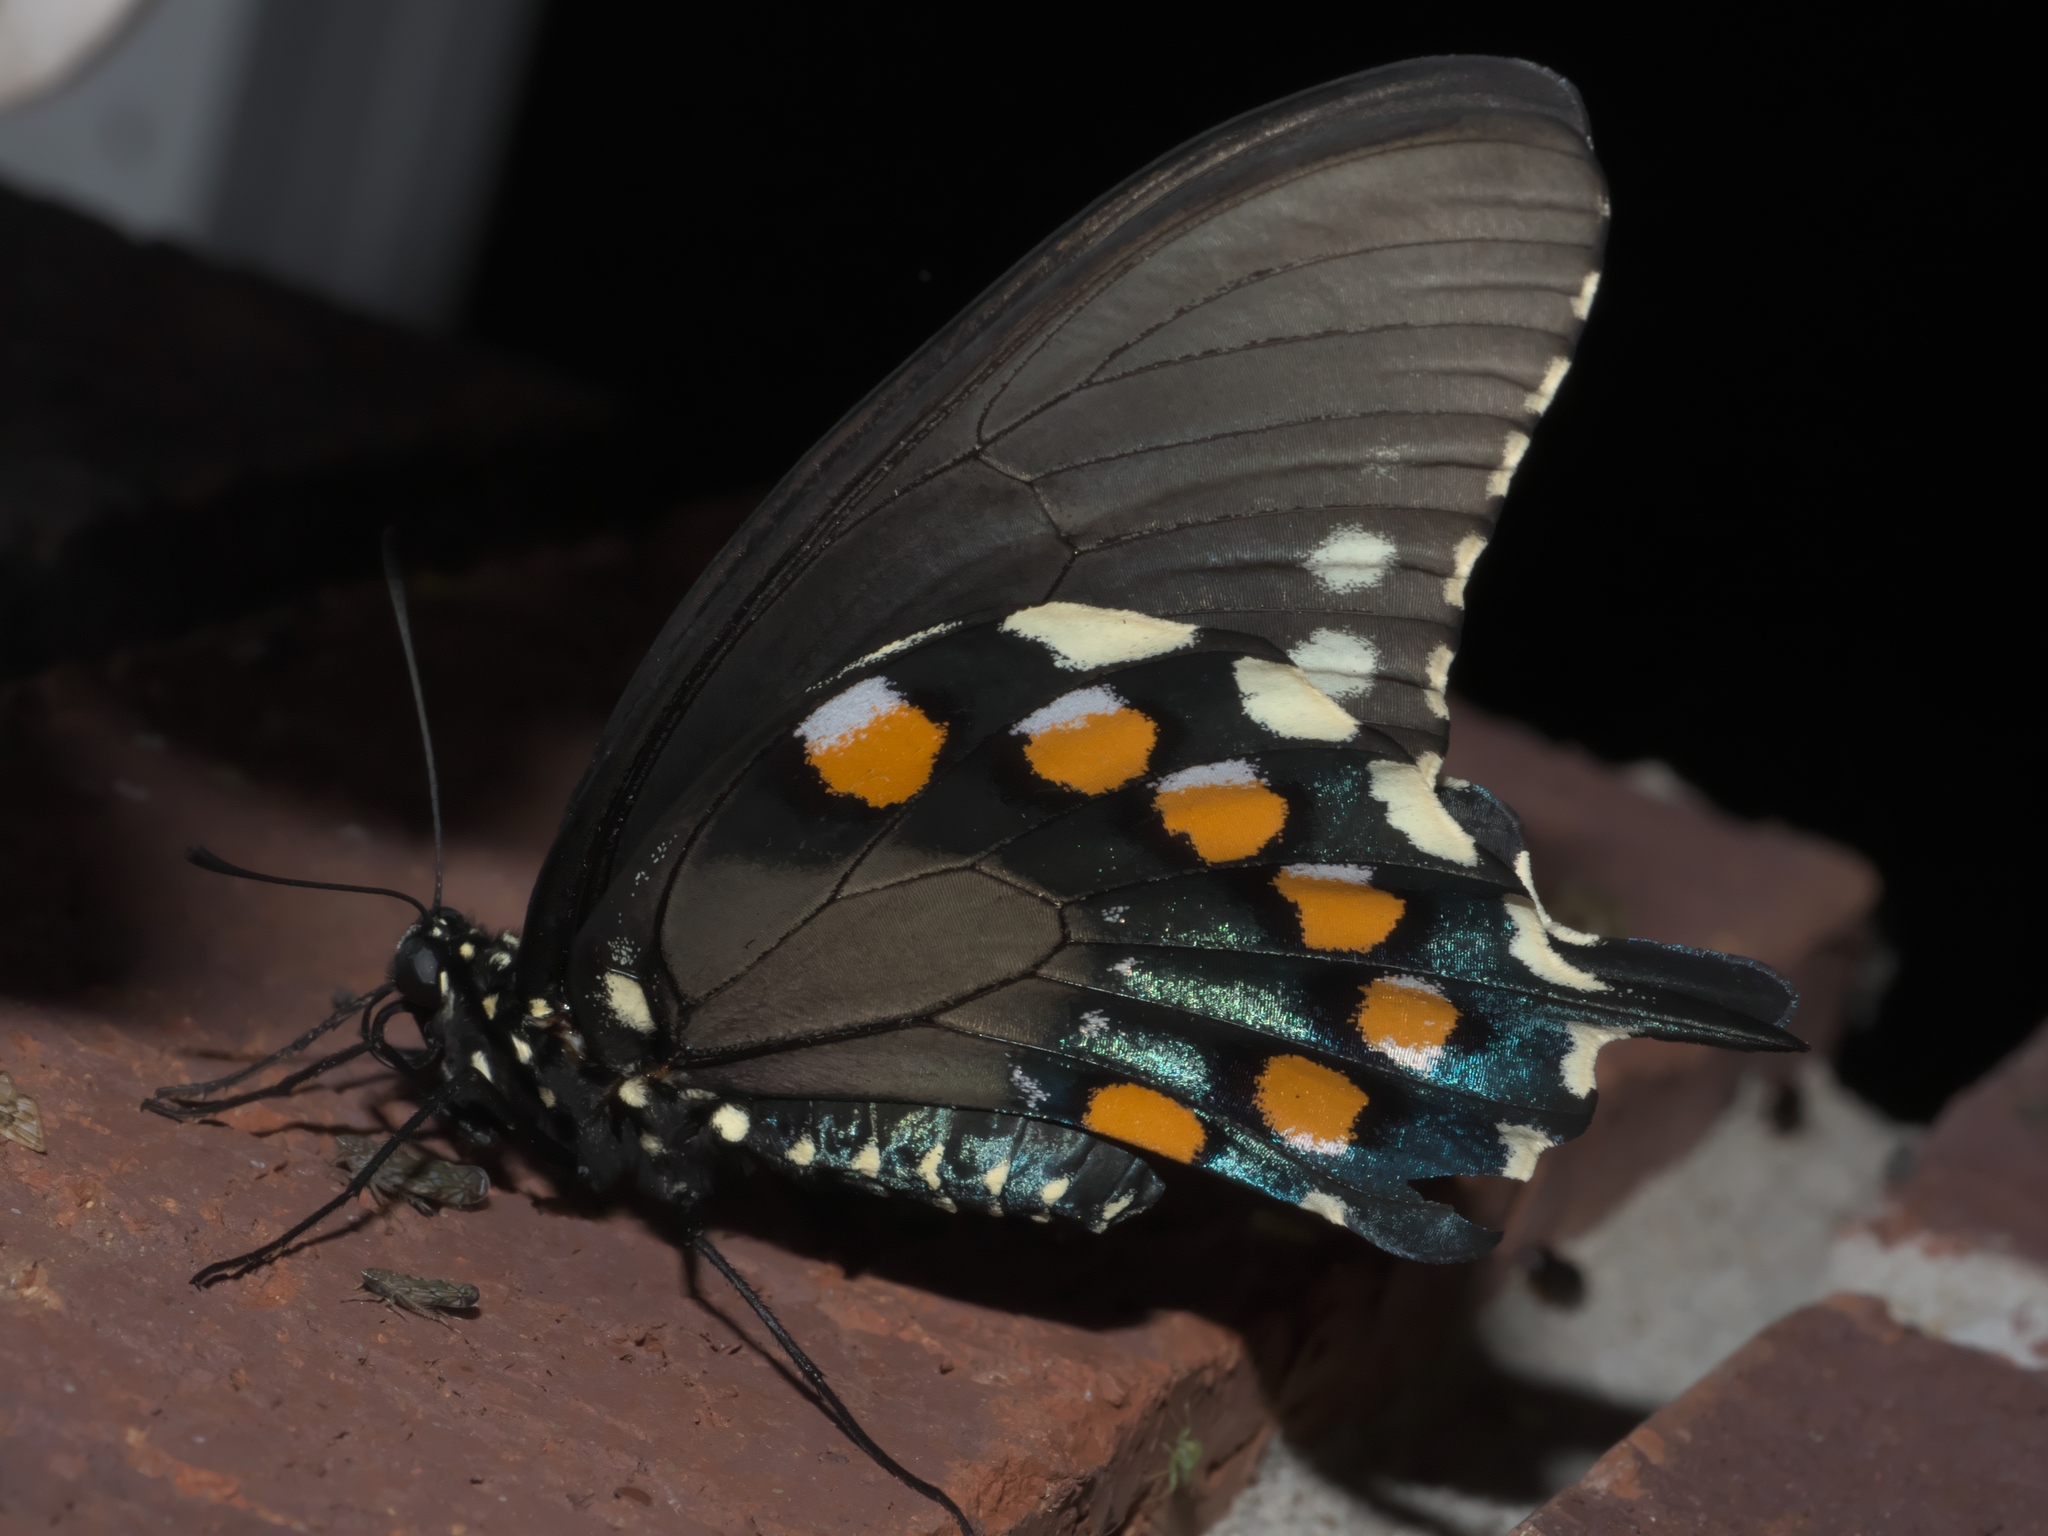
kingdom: Animalia
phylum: Arthropoda
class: Insecta
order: Lepidoptera
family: Papilionidae
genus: Battus
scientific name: Battus philenor
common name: Pipevine swallowtail
